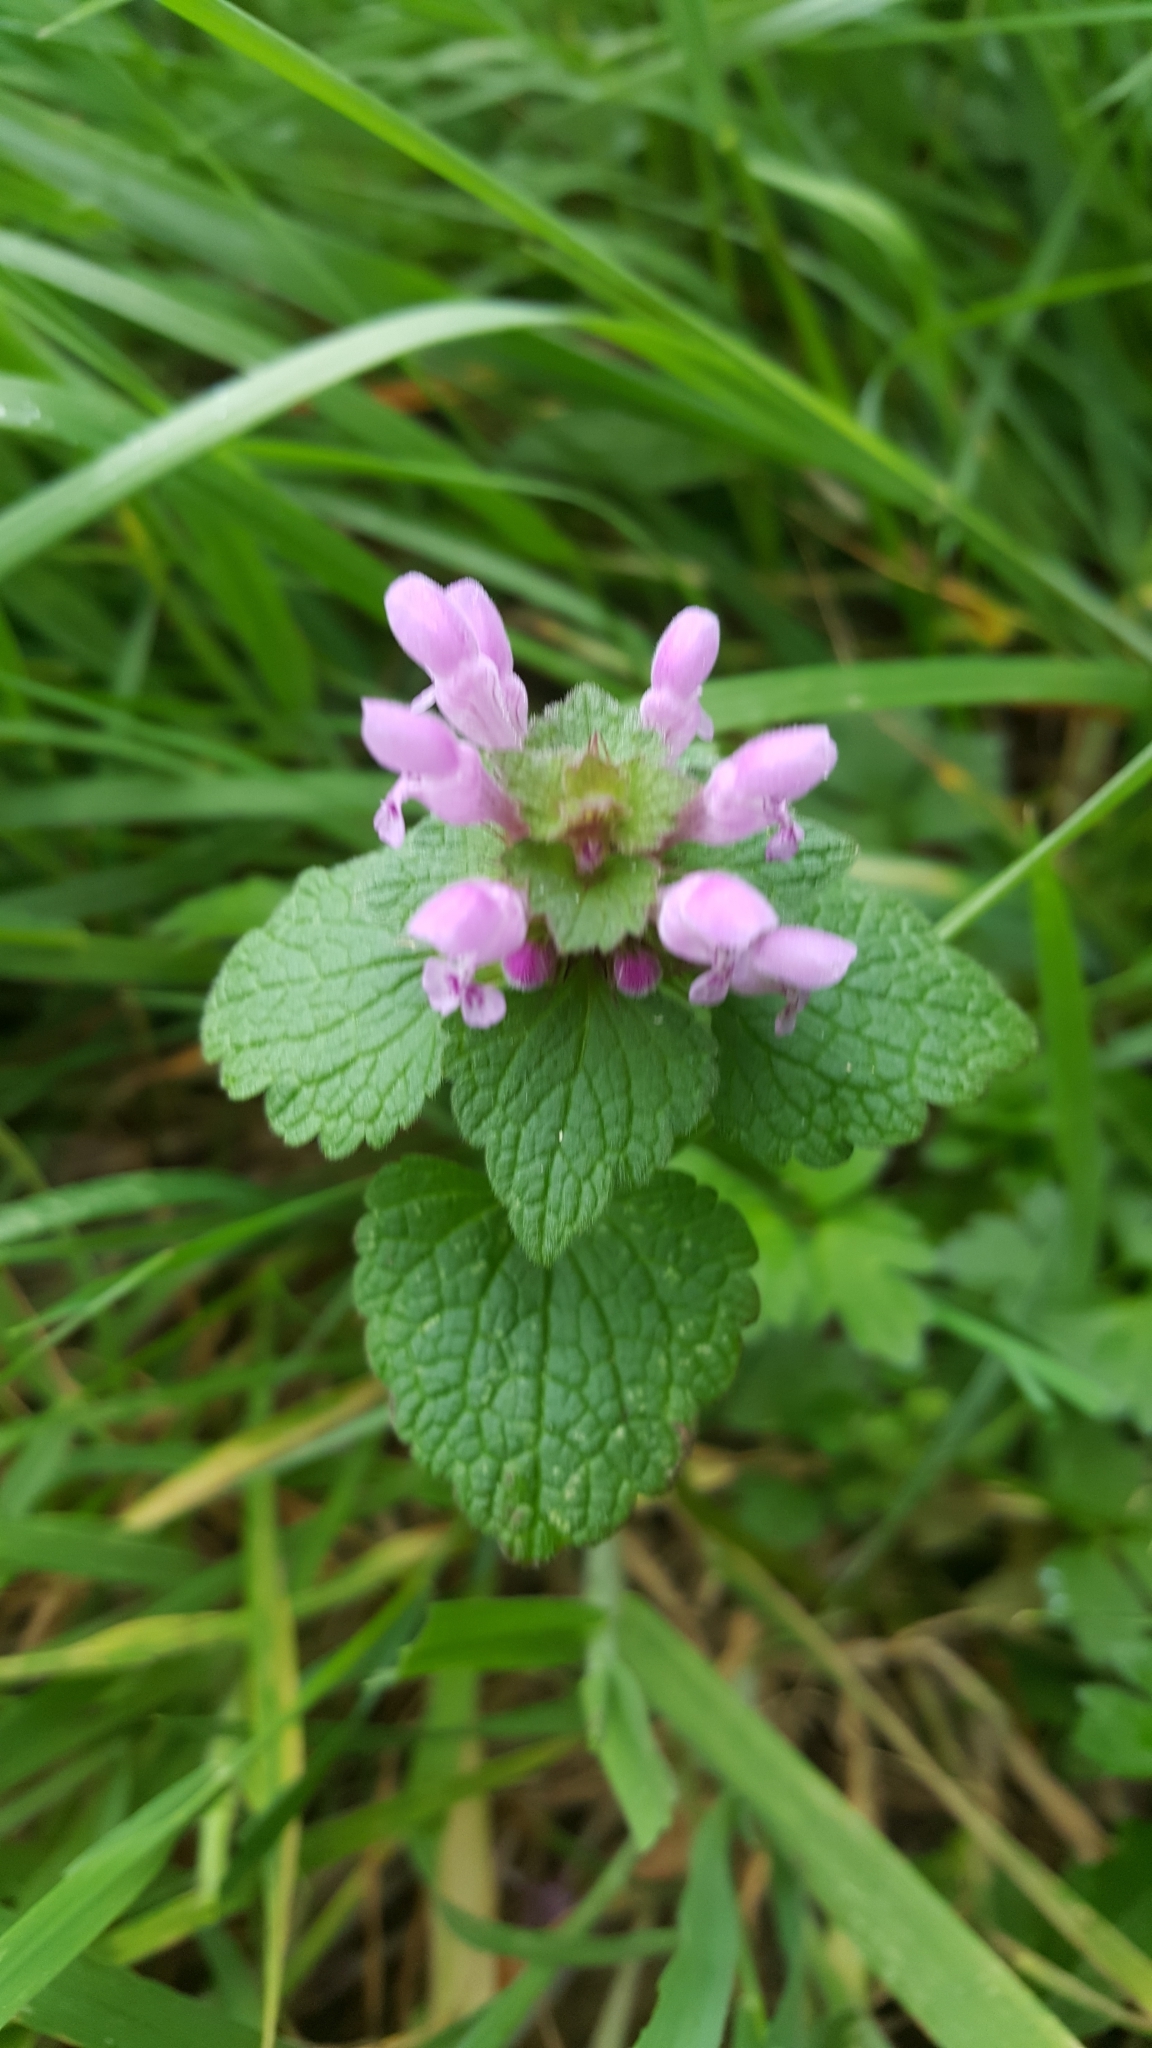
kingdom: Plantae
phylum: Tracheophyta
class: Magnoliopsida
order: Lamiales
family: Lamiaceae
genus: Lamium
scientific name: Lamium purpureum
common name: Red dead-nettle
